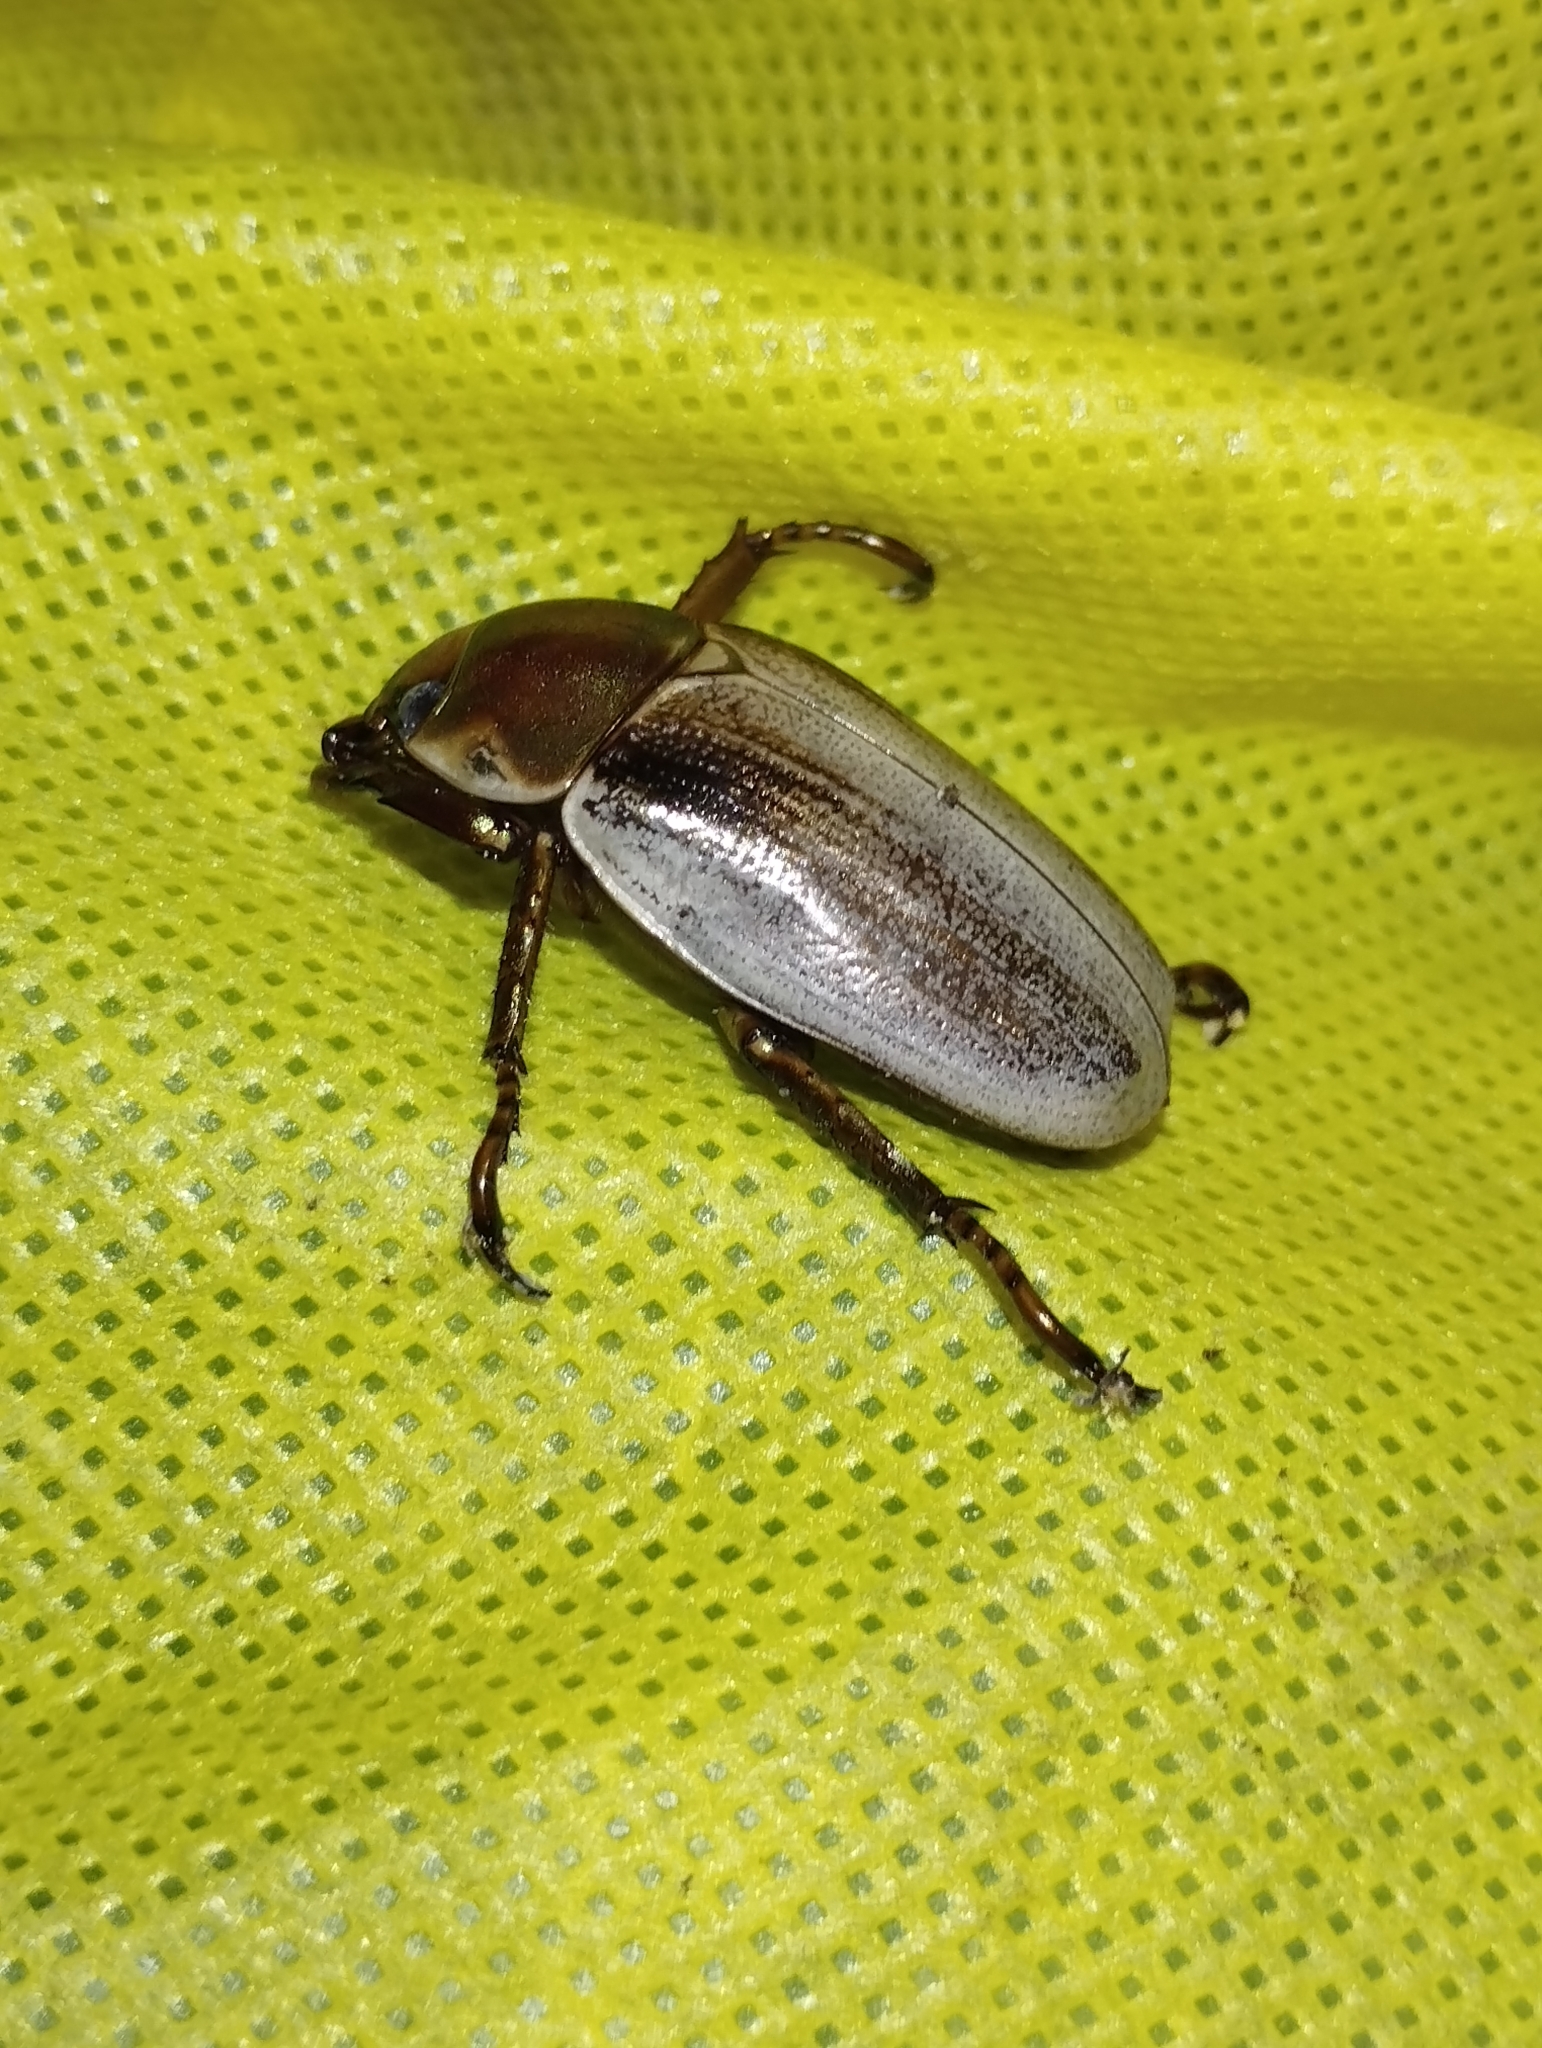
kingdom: Animalia
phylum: Arthropoda
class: Insecta
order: Coleoptera
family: Scarabaeidae
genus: Pelidnota
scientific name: Pelidnota punctulata
